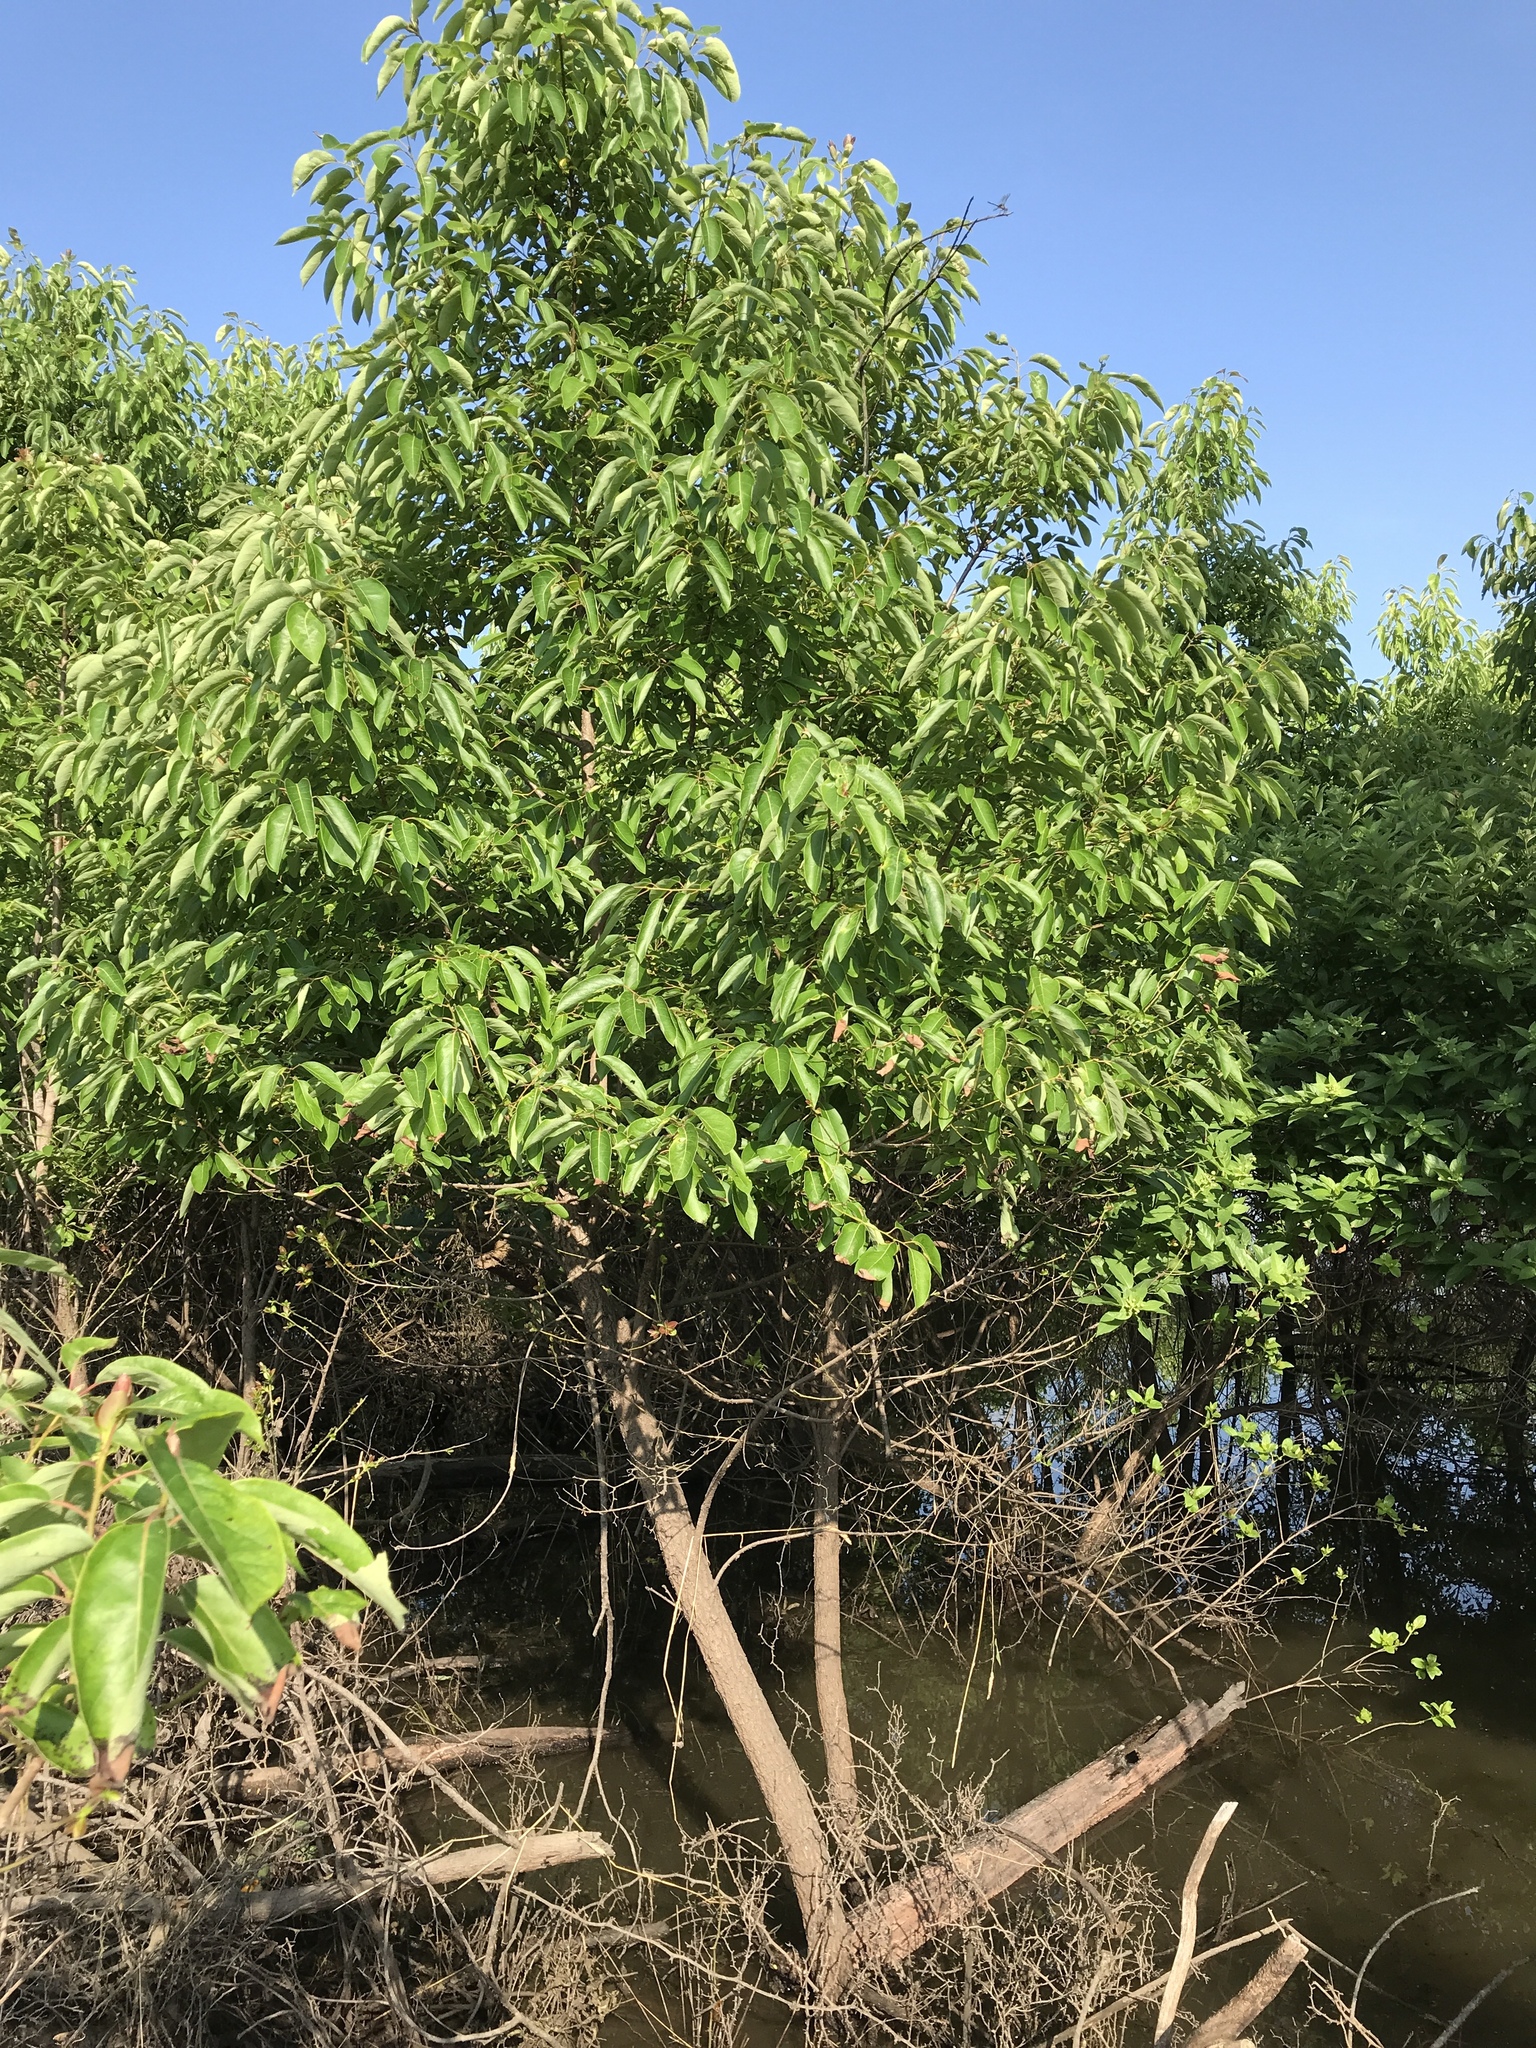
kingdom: Plantae
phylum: Tracheophyta
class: Magnoliopsida
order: Ericales
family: Ebenaceae
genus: Diospyros
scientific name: Diospyros virginiana
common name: Persimmon
